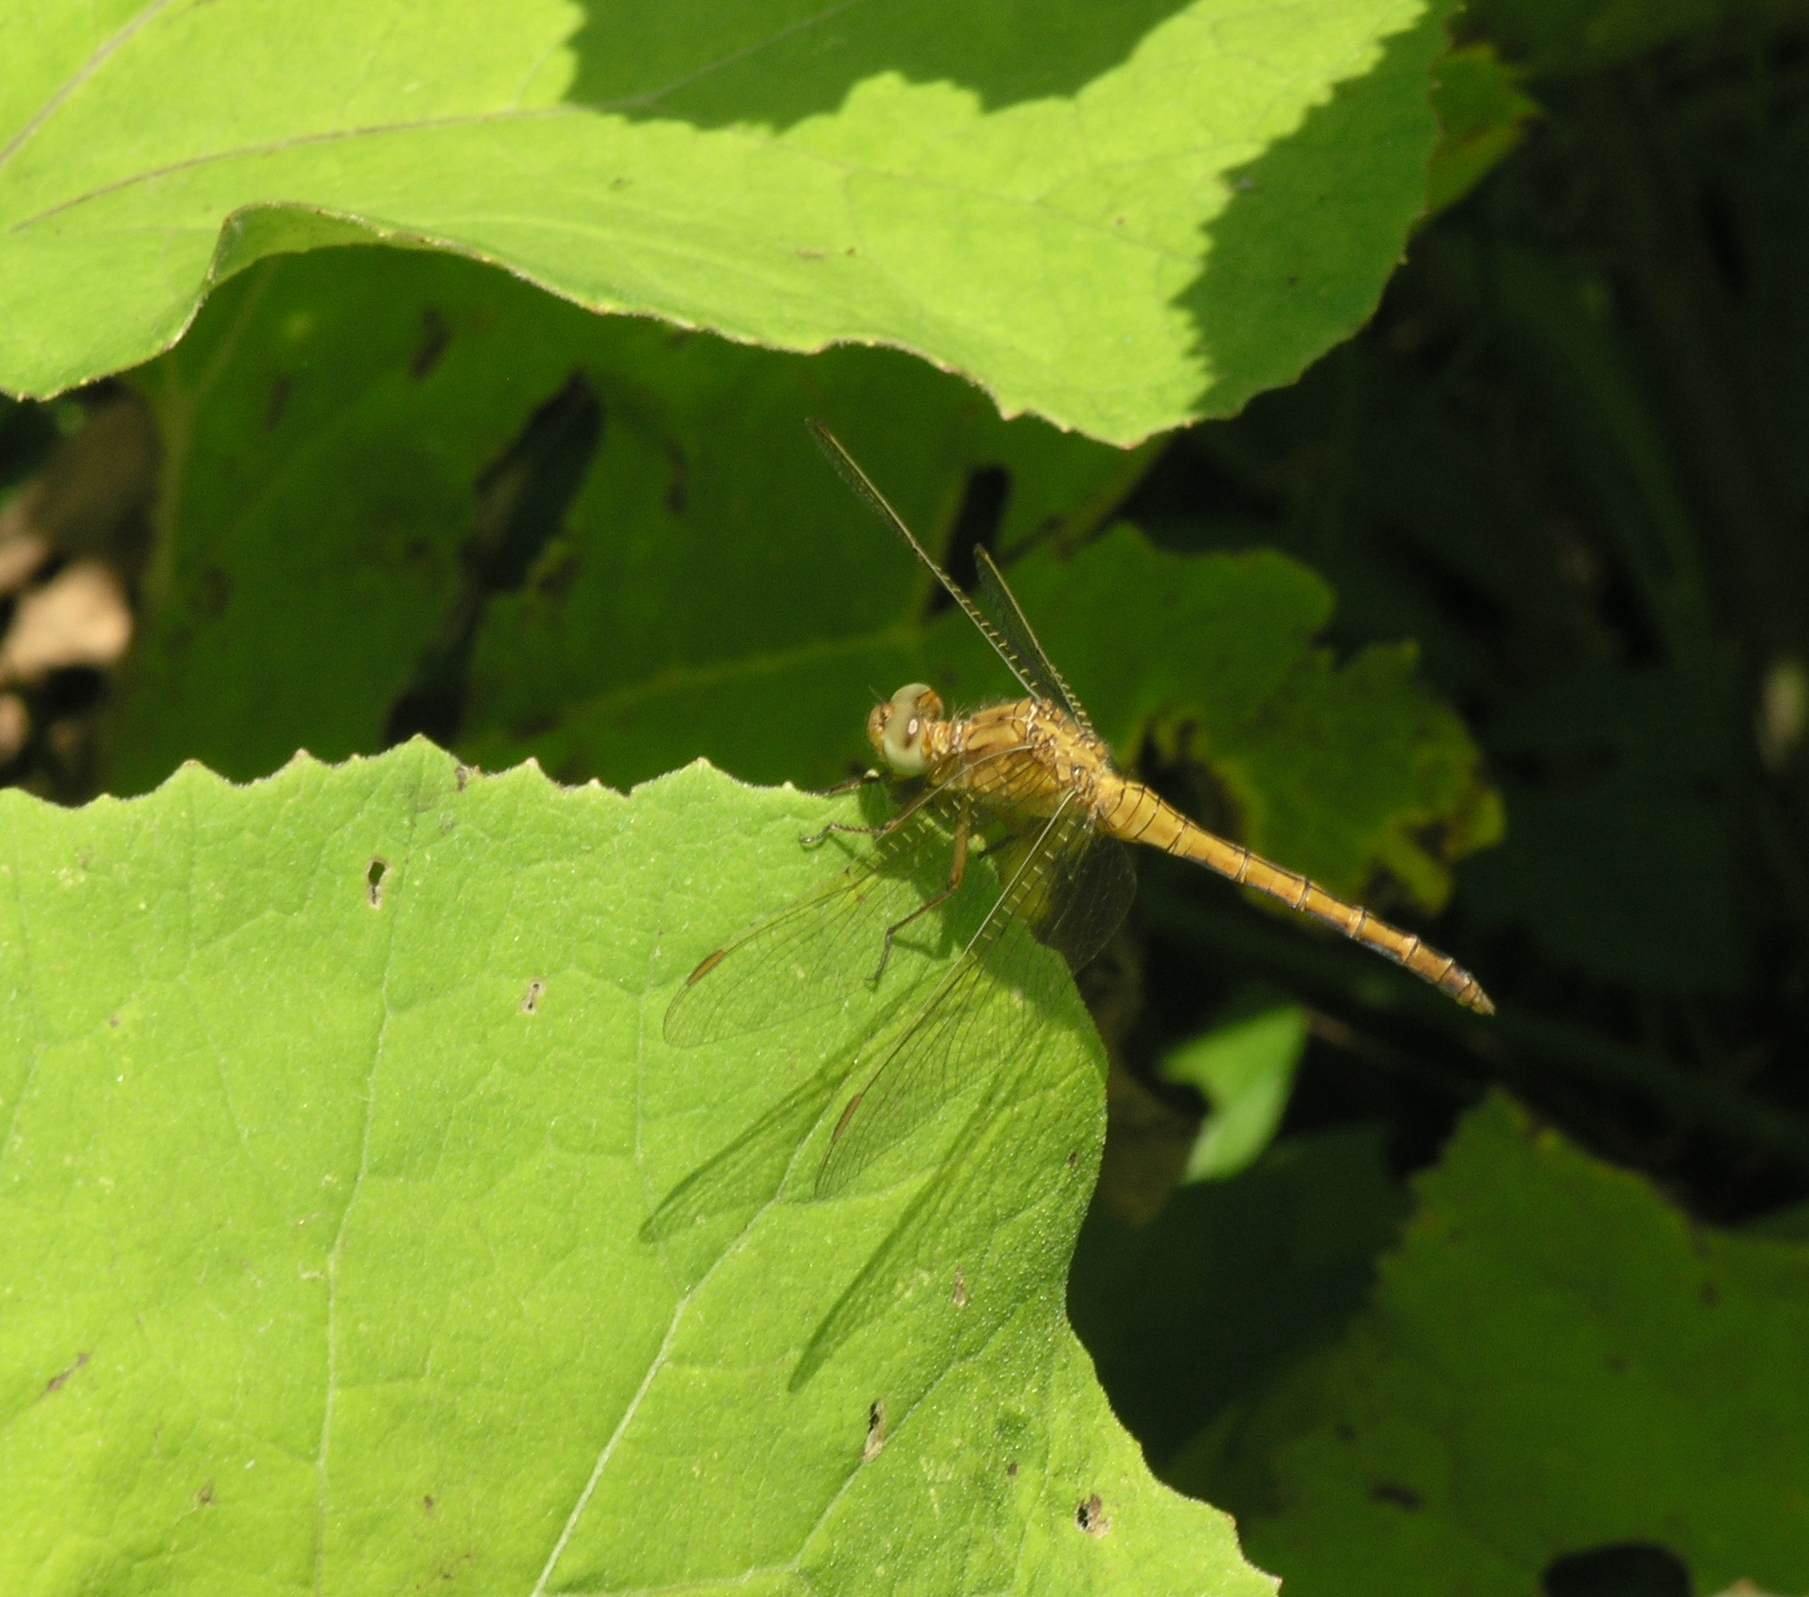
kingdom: Animalia
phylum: Arthropoda
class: Insecta
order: Odonata
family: Libellulidae
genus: Orthetrum
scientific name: Orthetrum coerulescens
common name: Keeled skimmer
